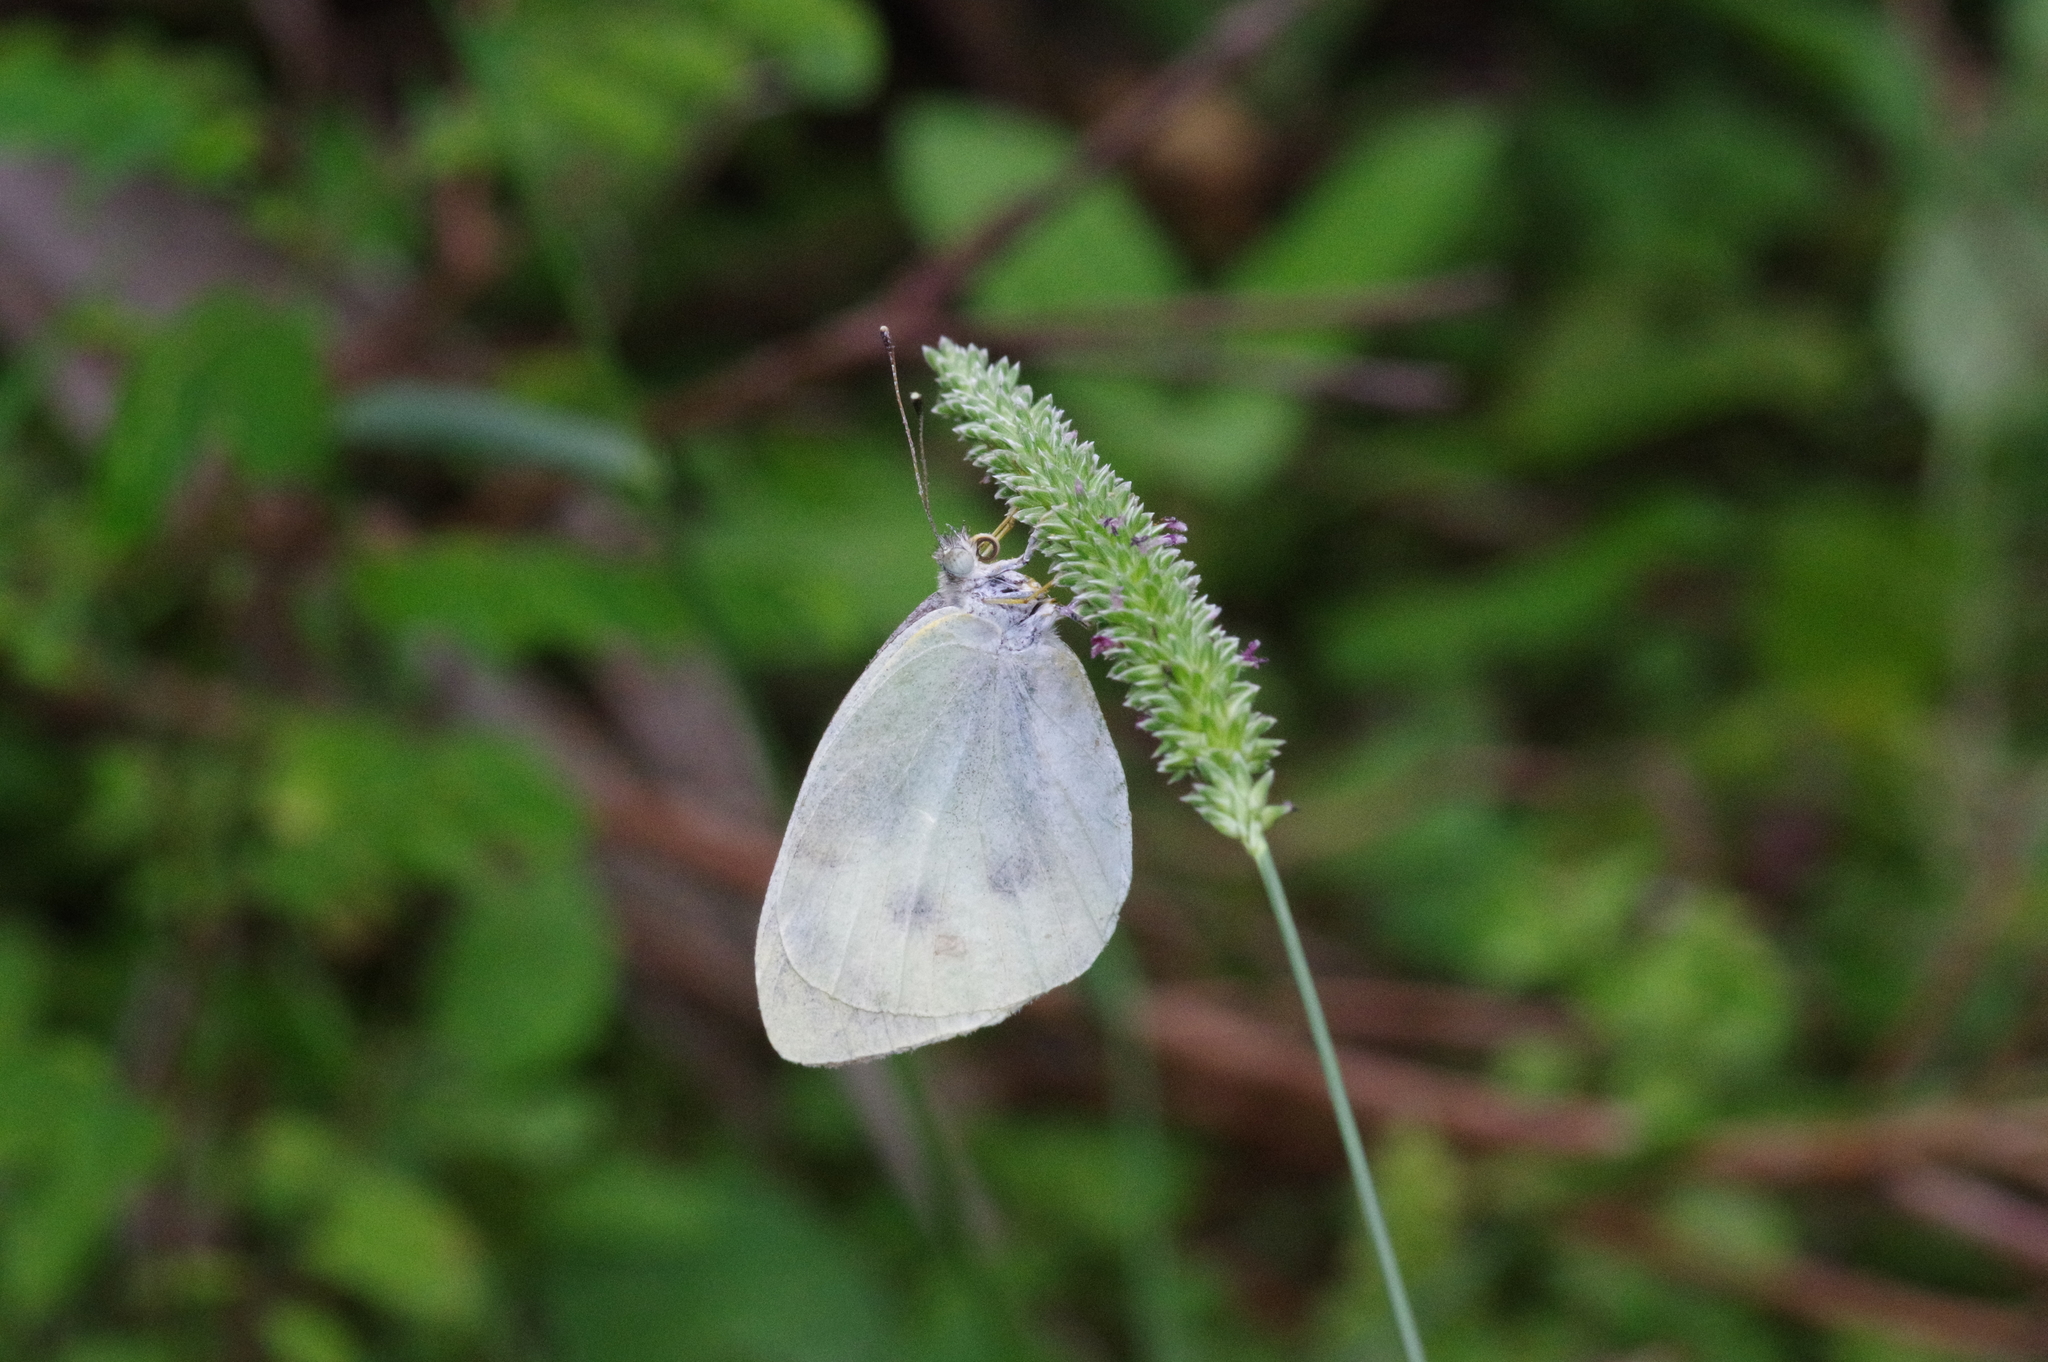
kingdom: Animalia
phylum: Arthropoda
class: Insecta
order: Lepidoptera
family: Pieridae
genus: Pieris
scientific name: Pieris rapae
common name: Small white
